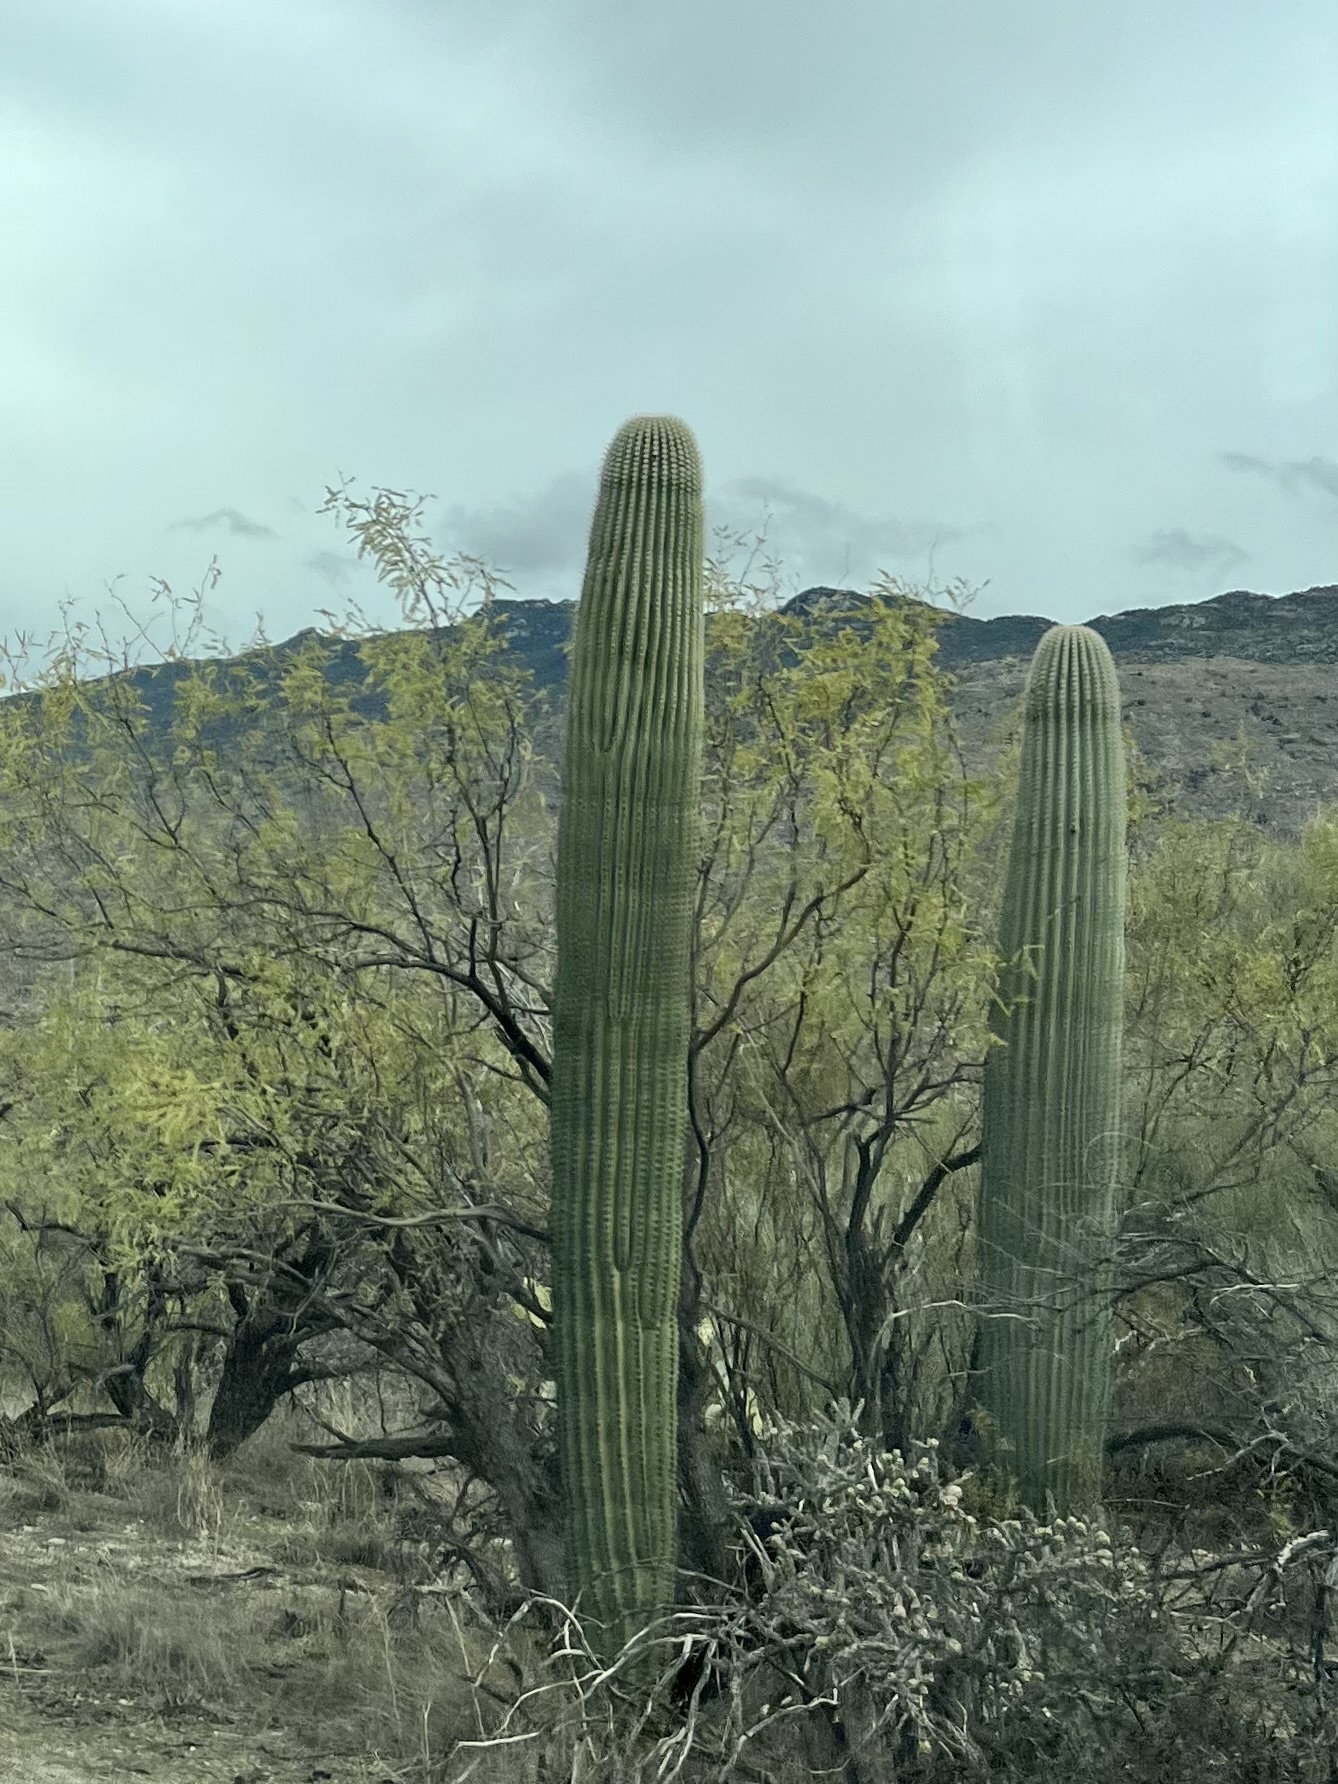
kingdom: Plantae
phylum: Tracheophyta
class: Magnoliopsida
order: Caryophyllales
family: Cactaceae
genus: Carnegiea
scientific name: Carnegiea gigantea
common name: Saguaro
